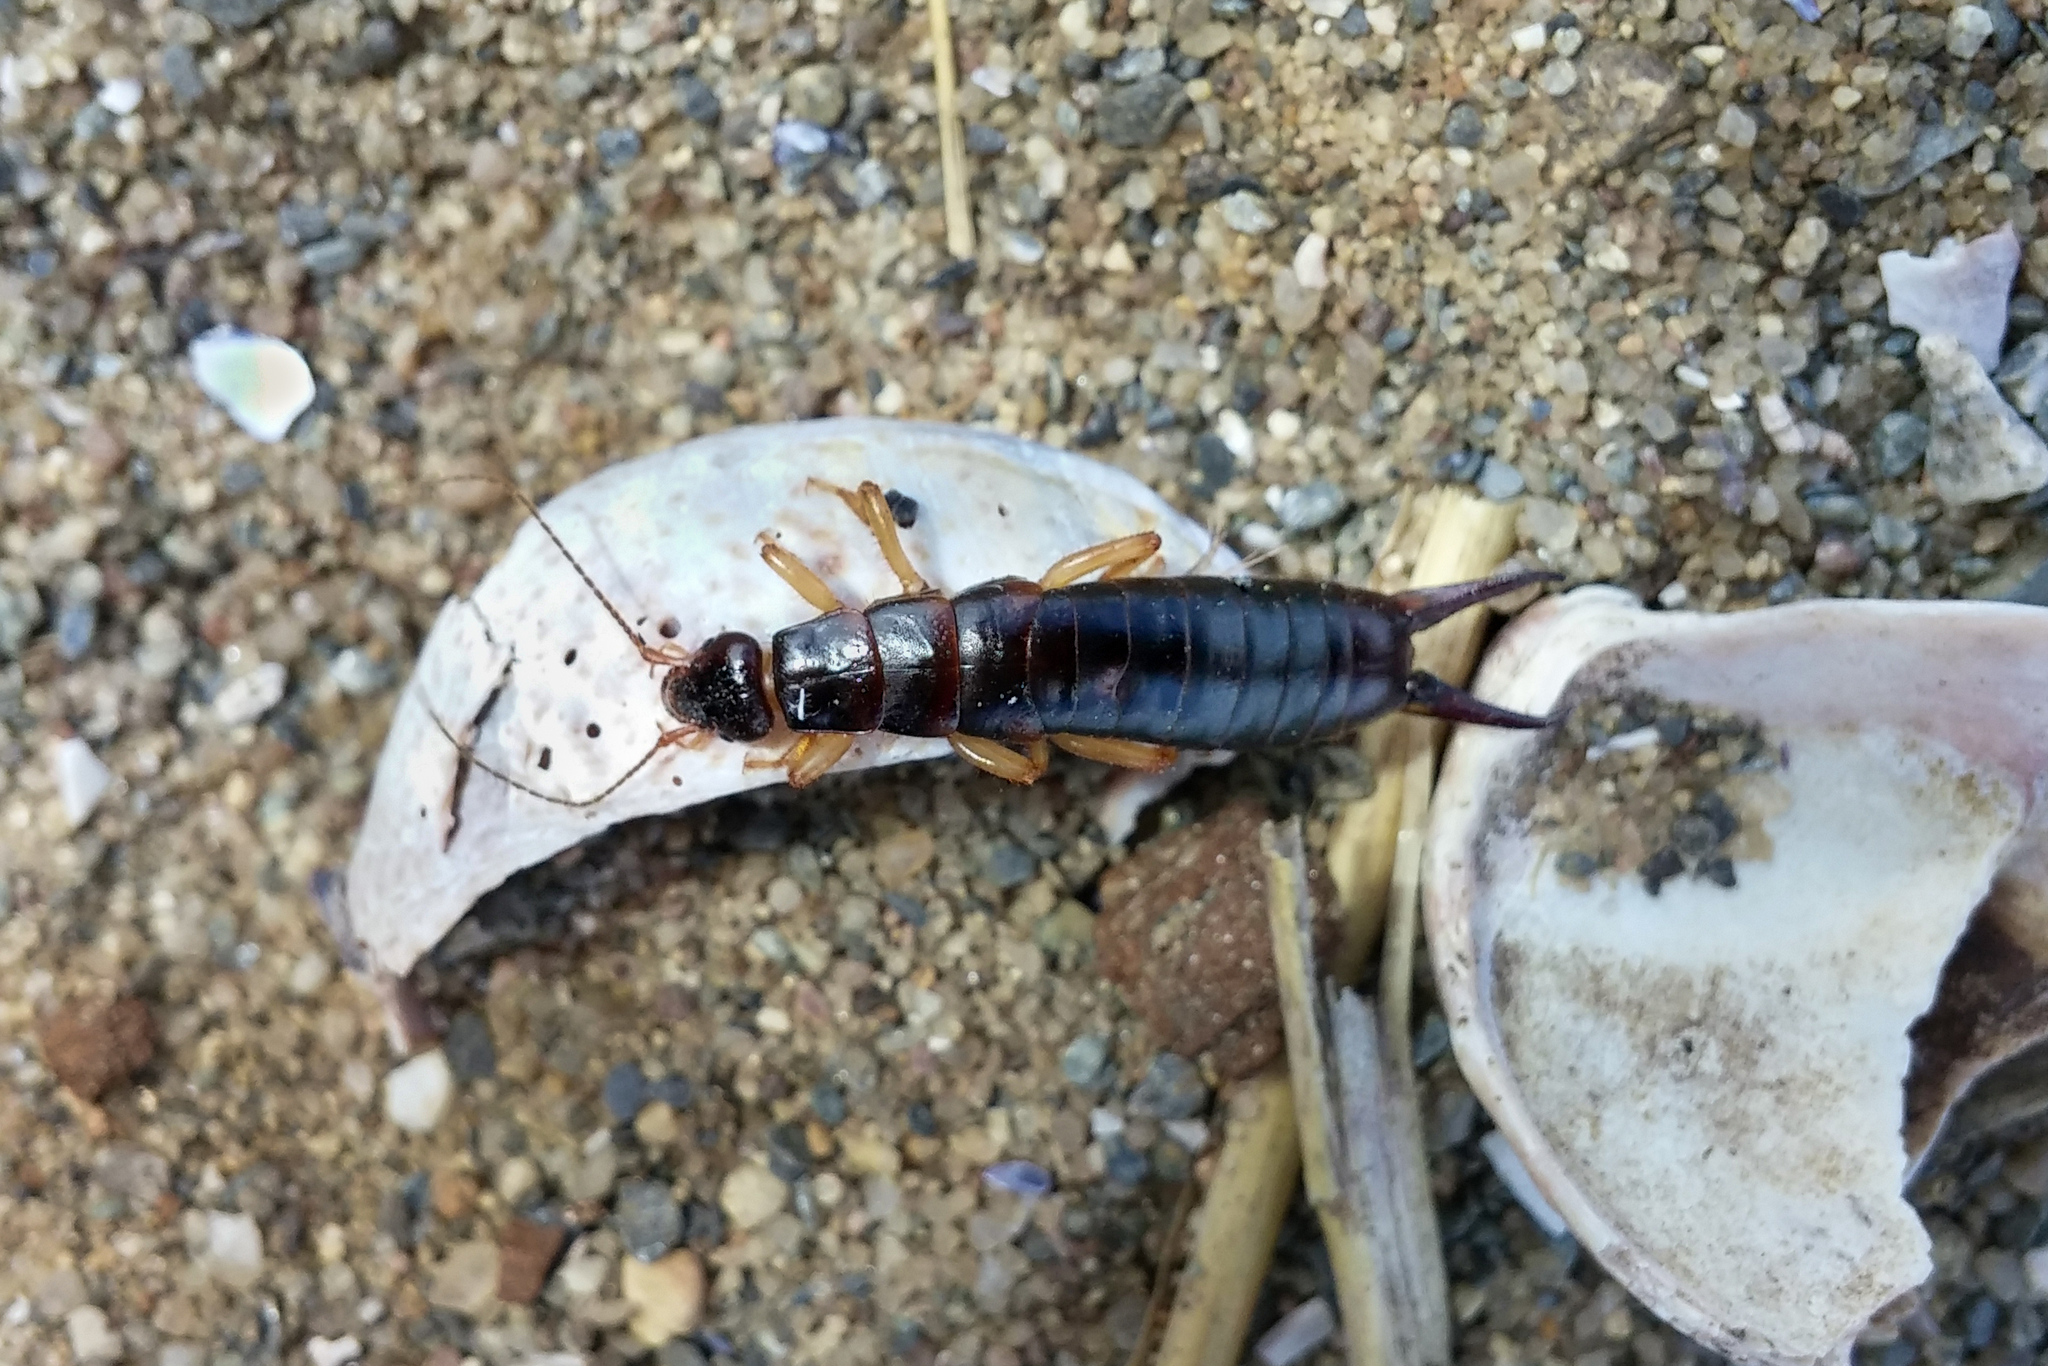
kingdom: Animalia
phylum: Arthropoda
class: Insecta
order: Dermaptera
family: Anisolabididae
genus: Anisolabis
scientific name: Anisolabis maritima
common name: Maritime earwig
